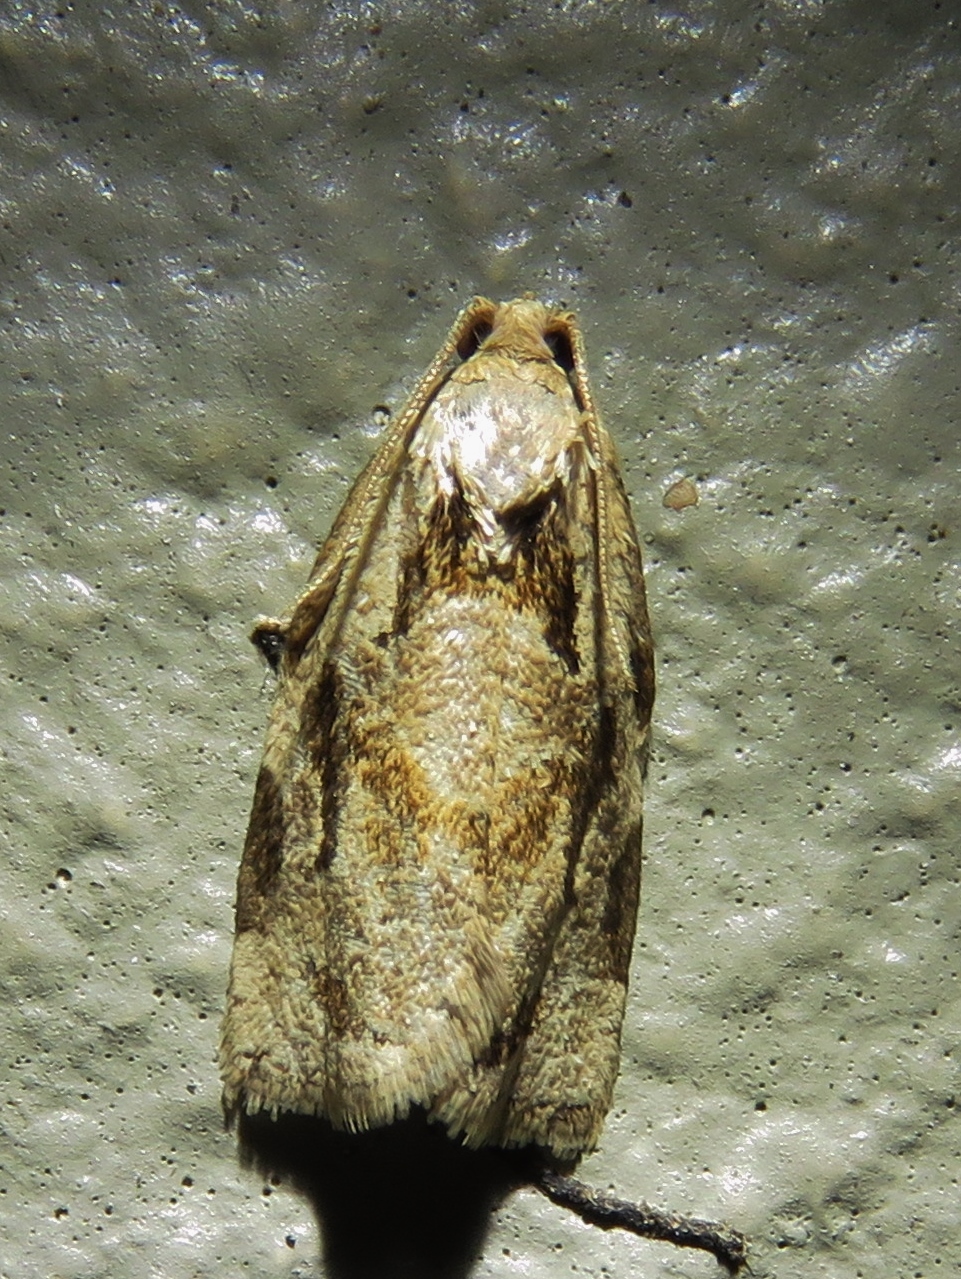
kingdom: Animalia
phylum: Arthropoda
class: Insecta
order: Lepidoptera
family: Tortricidae
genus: Archips
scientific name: Archips grisea
